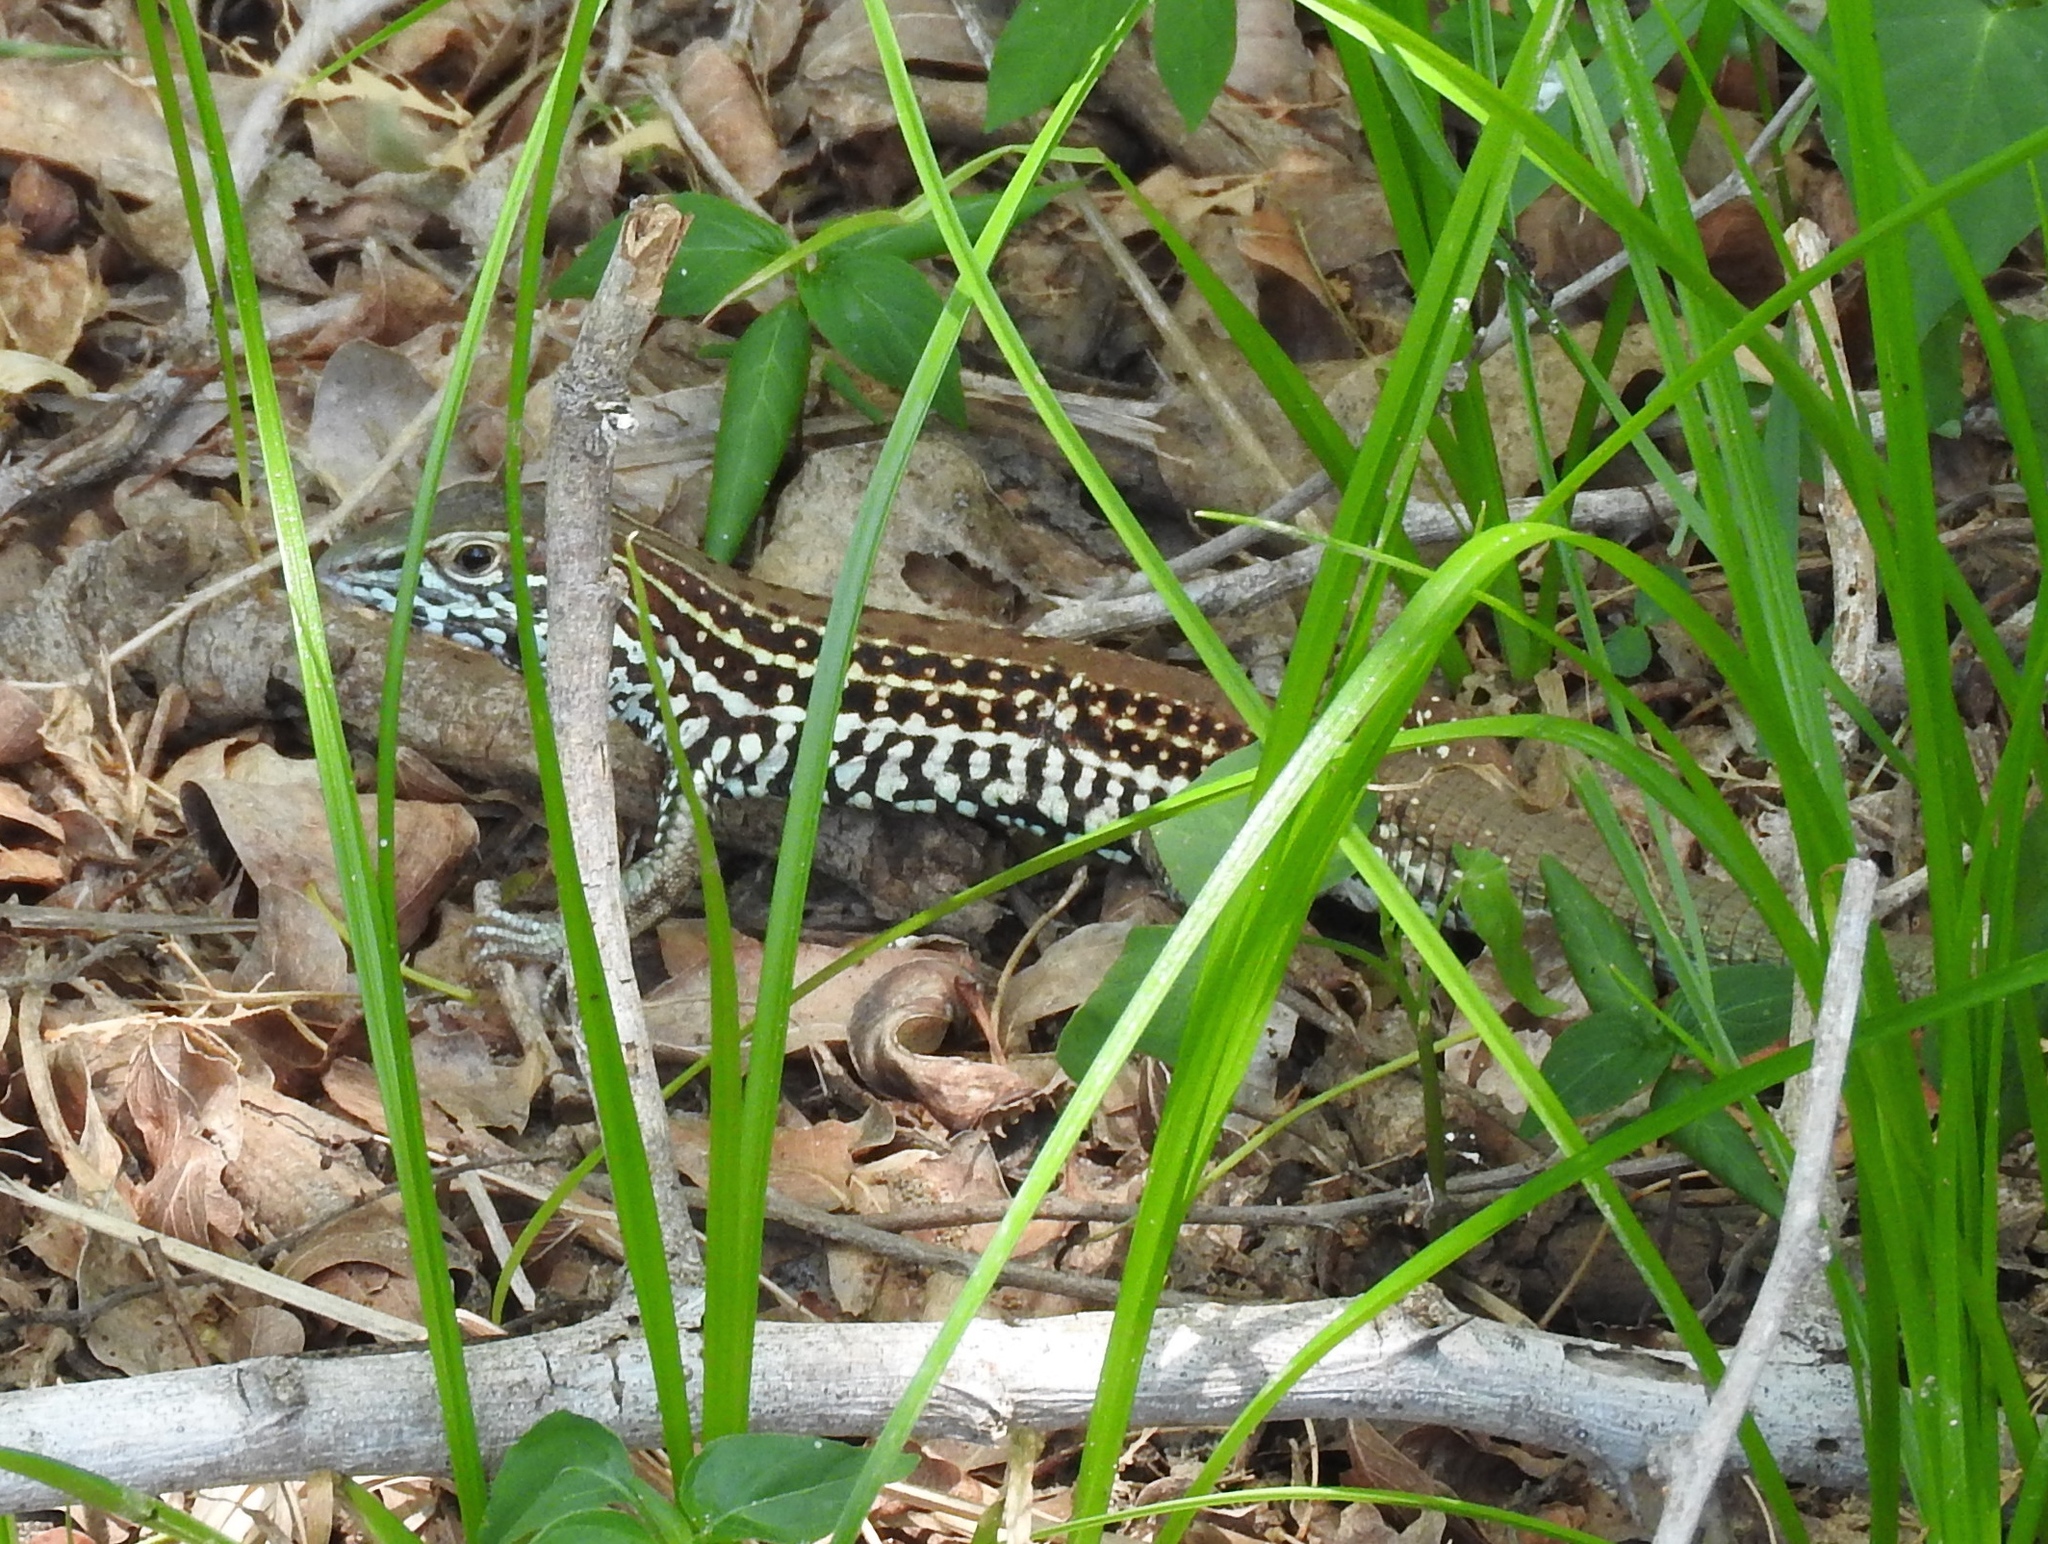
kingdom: Animalia
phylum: Chordata
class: Squamata
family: Teiidae
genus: Aspidoscelis
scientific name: Aspidoscelis costatus
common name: Western mexico whiptail
